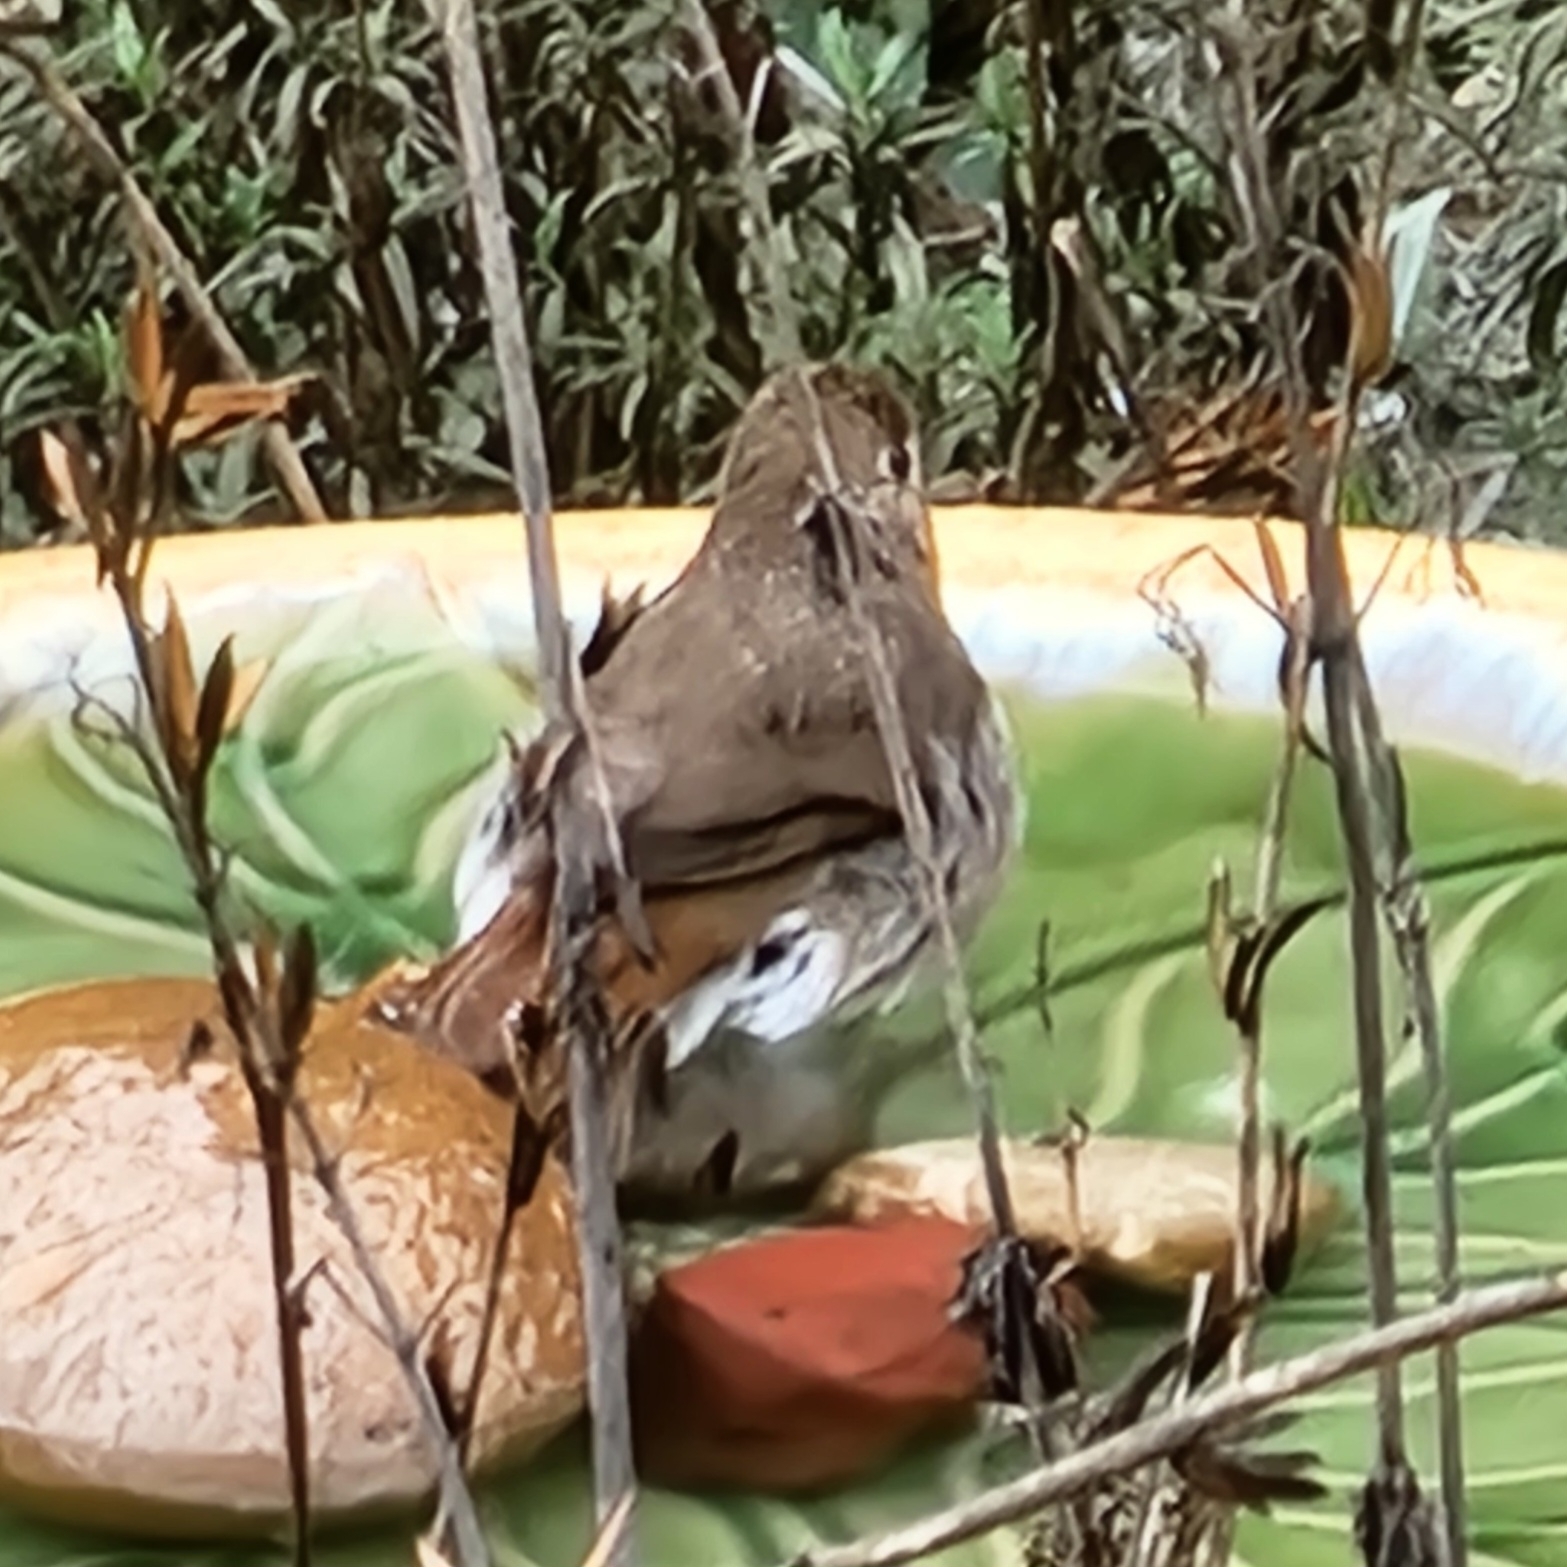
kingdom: Animalia
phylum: Chordata
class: Aves
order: Passeriformes
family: Turdidae
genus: Catharus
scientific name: Catharus guttatus
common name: Hermit thrush
